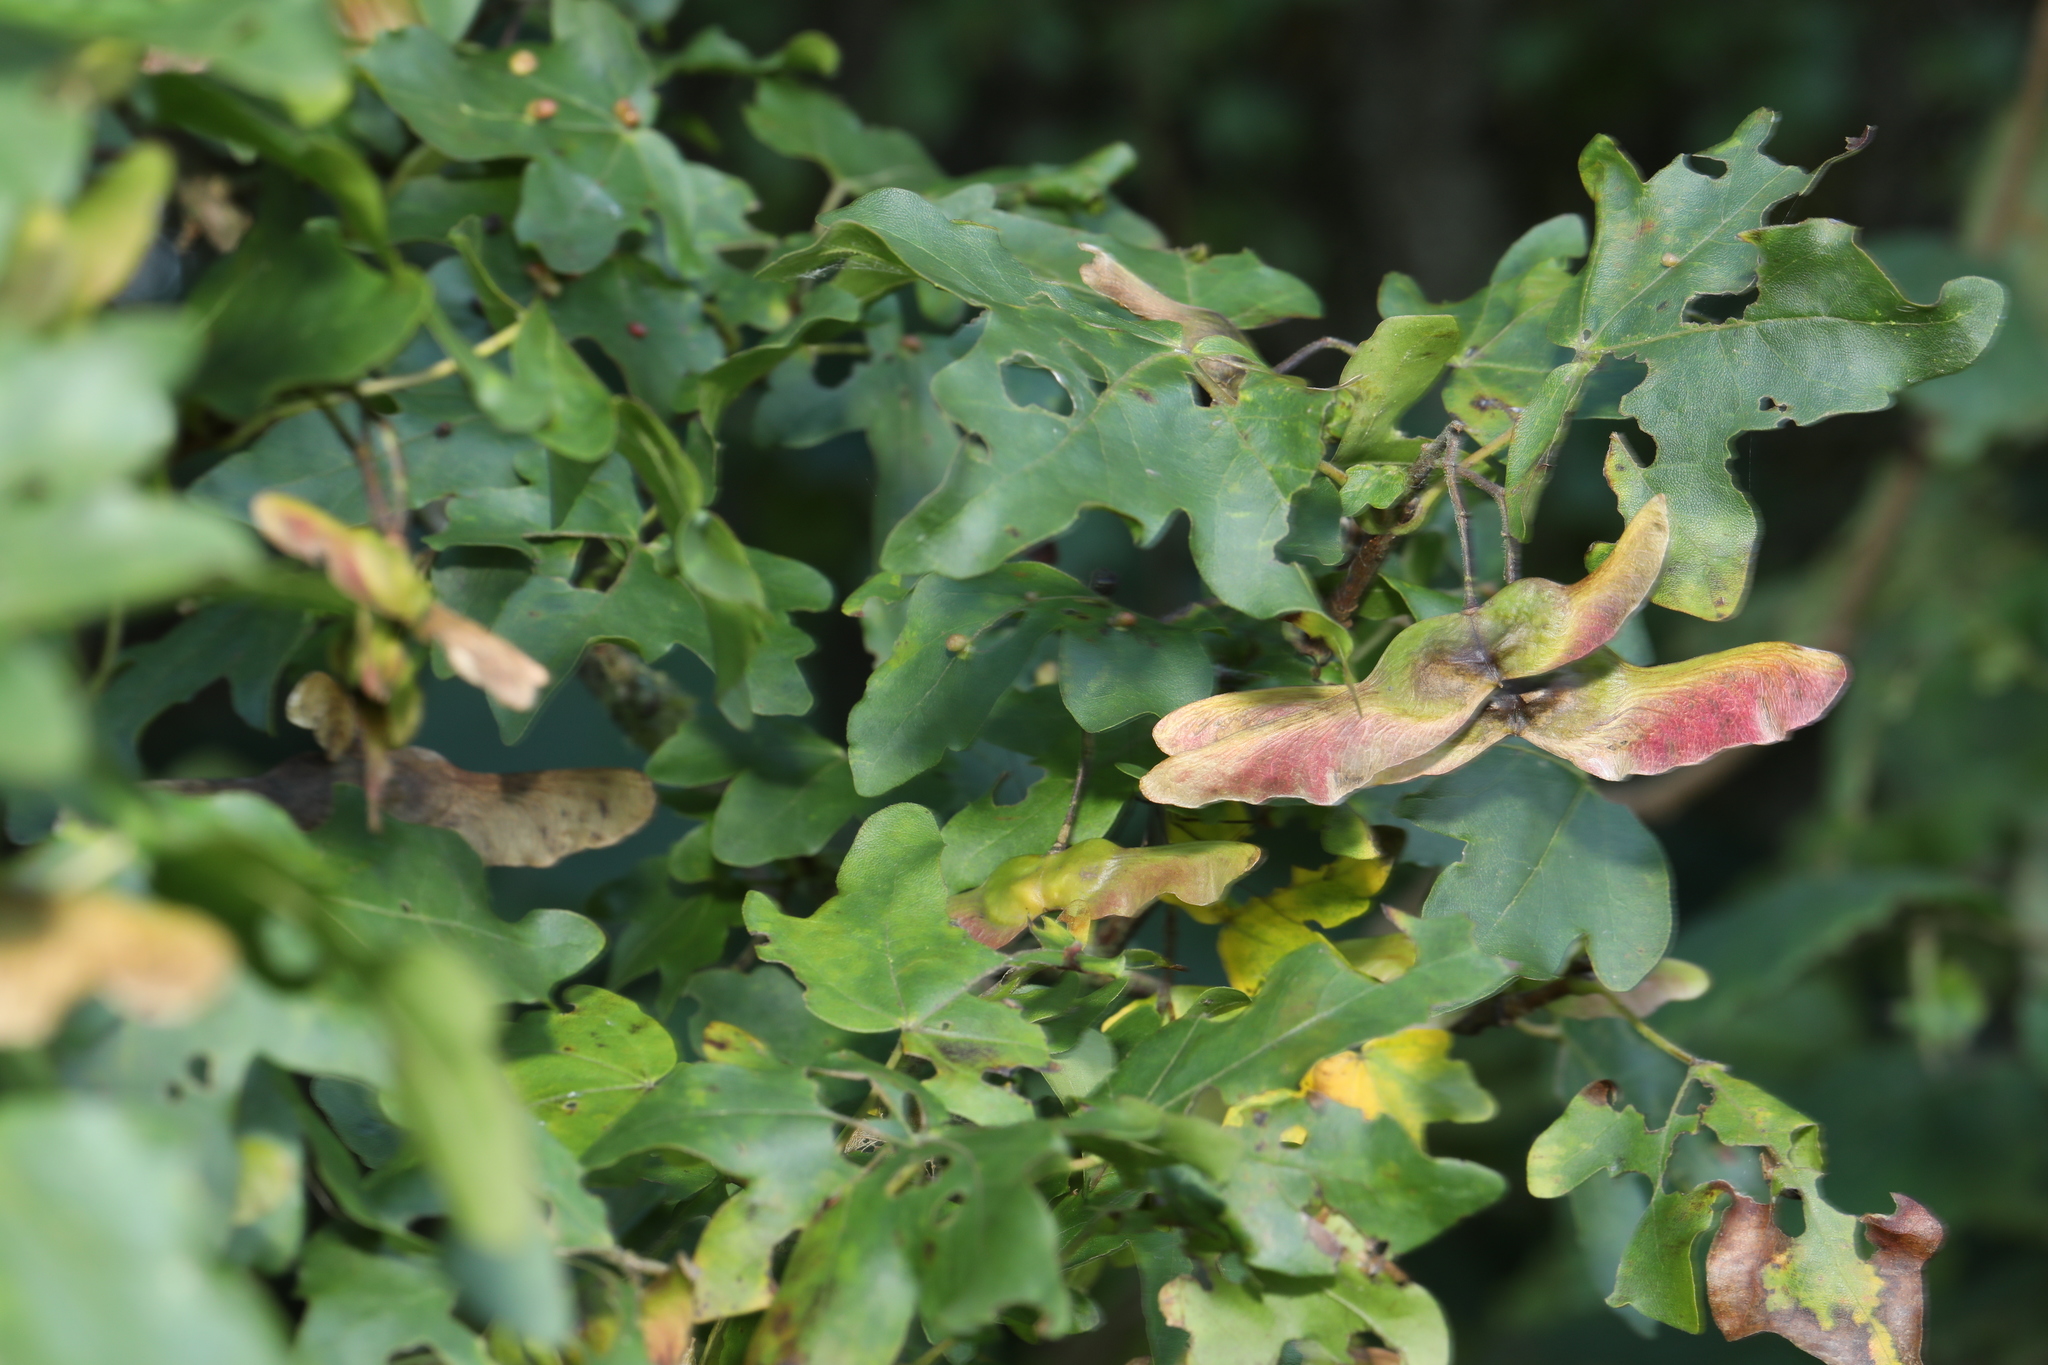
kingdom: Plantae
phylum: Tracheophyta
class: Magnoliopsida
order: Sapindales
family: Sapindaceae
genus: Acer
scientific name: Acer campestre
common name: Field maple
